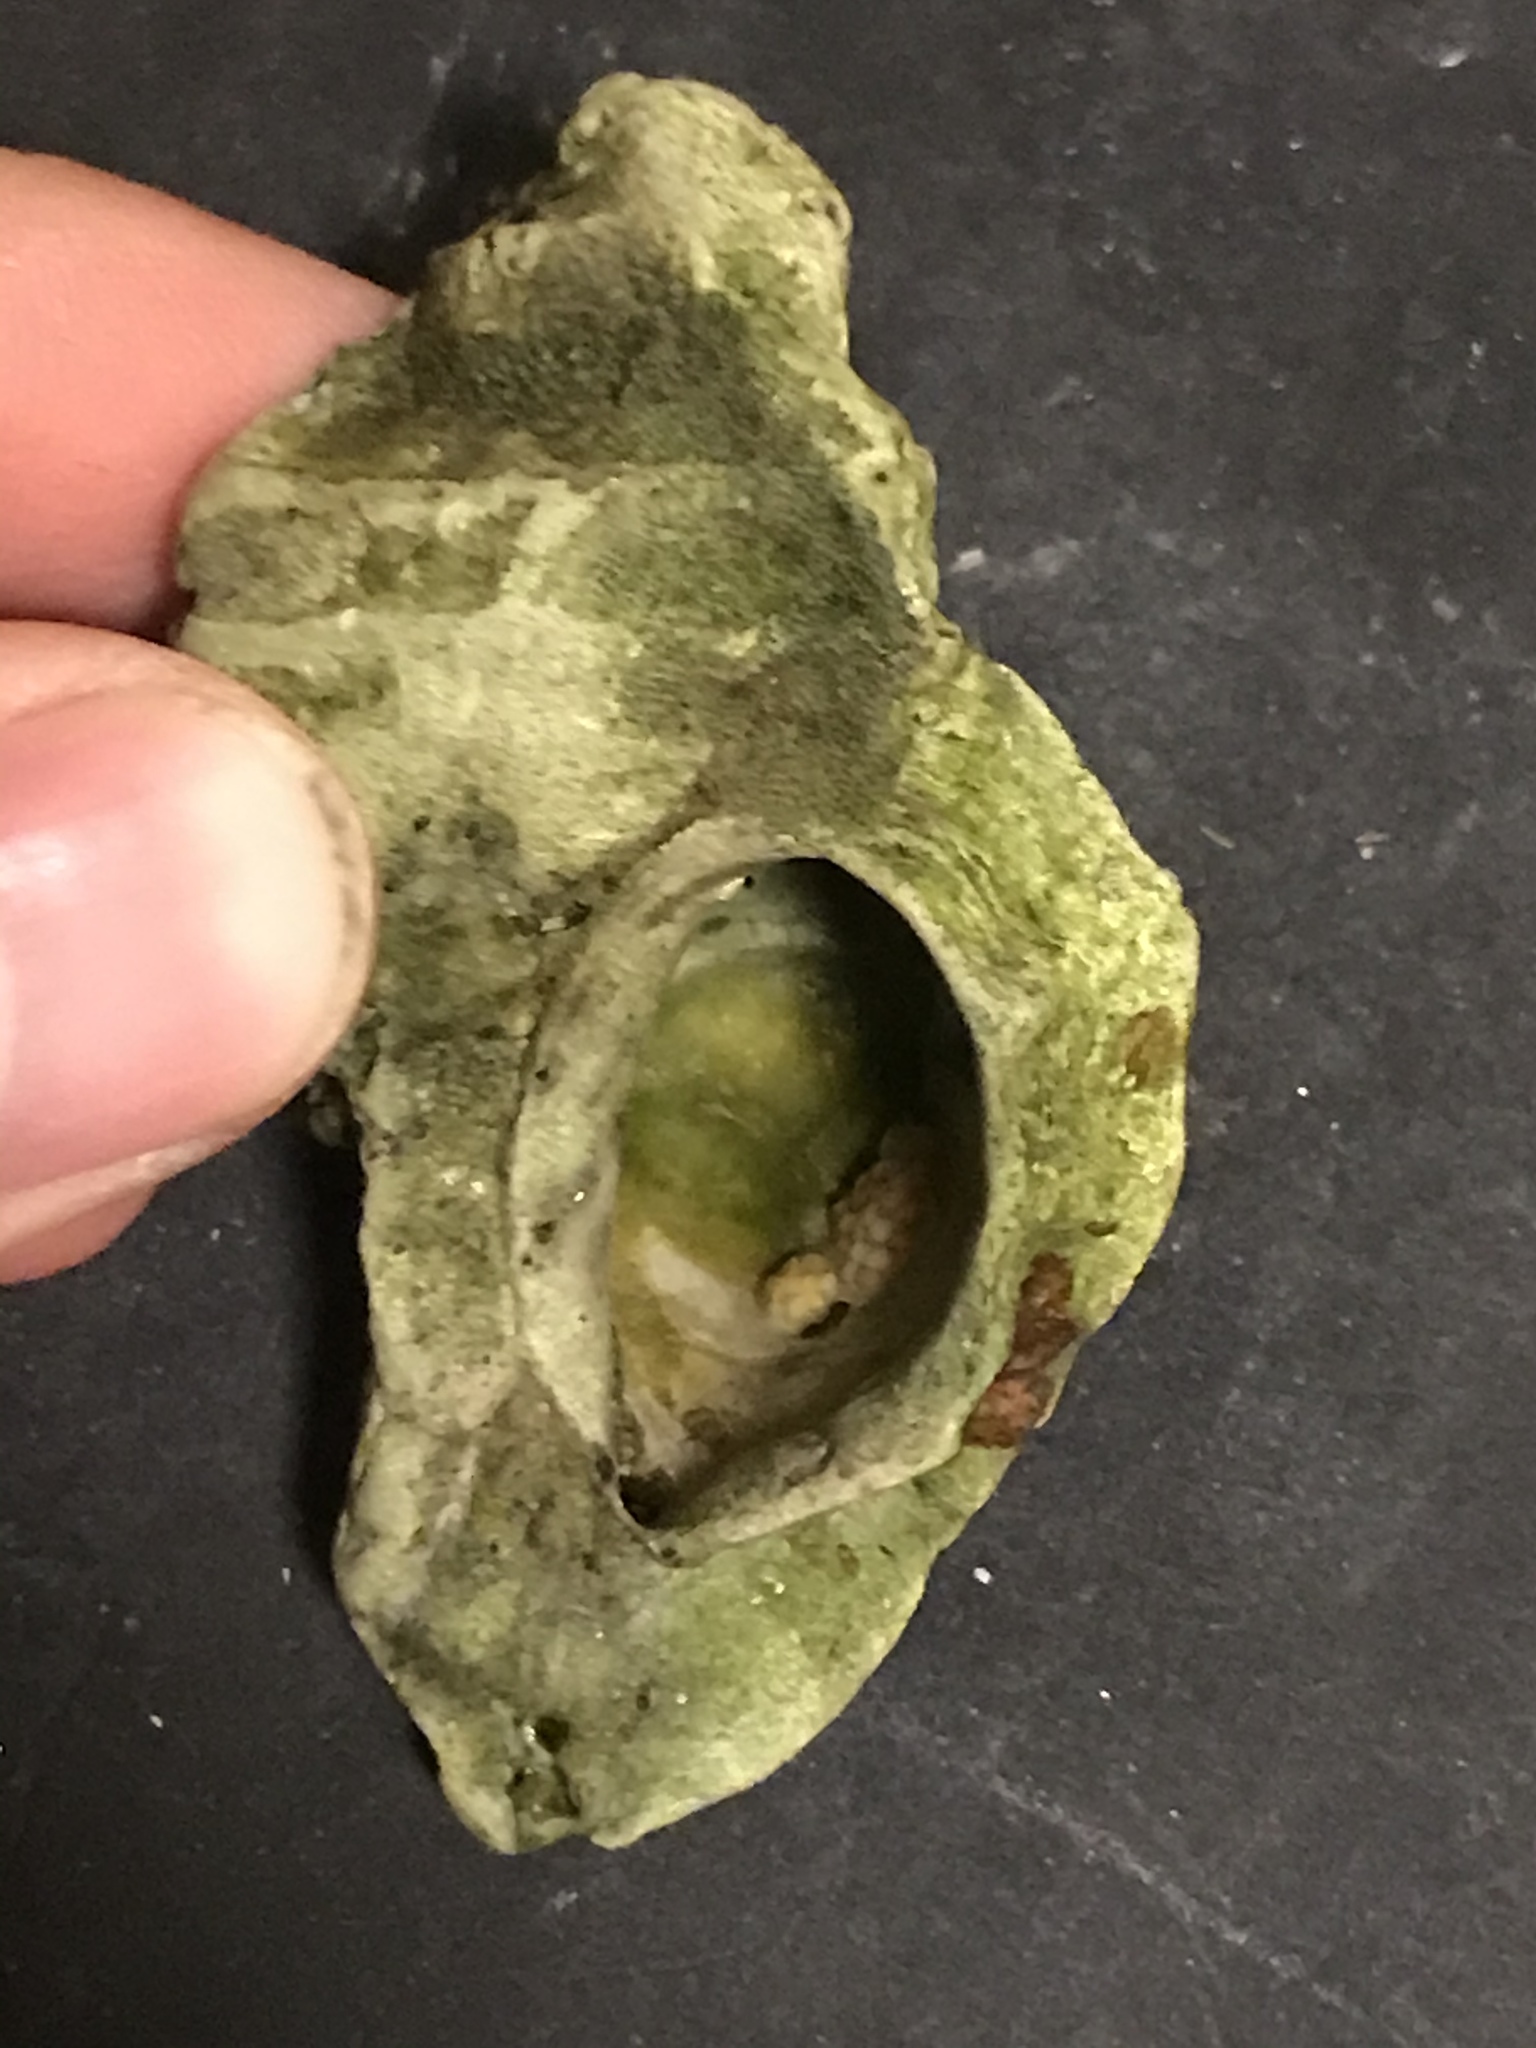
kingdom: Animalia
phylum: Mollusca
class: Gastropoda
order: Neogastropoda
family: Muricidae
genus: Ceratostoma
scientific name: Ceratostoma foliatum
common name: Foliate thorn purpura
